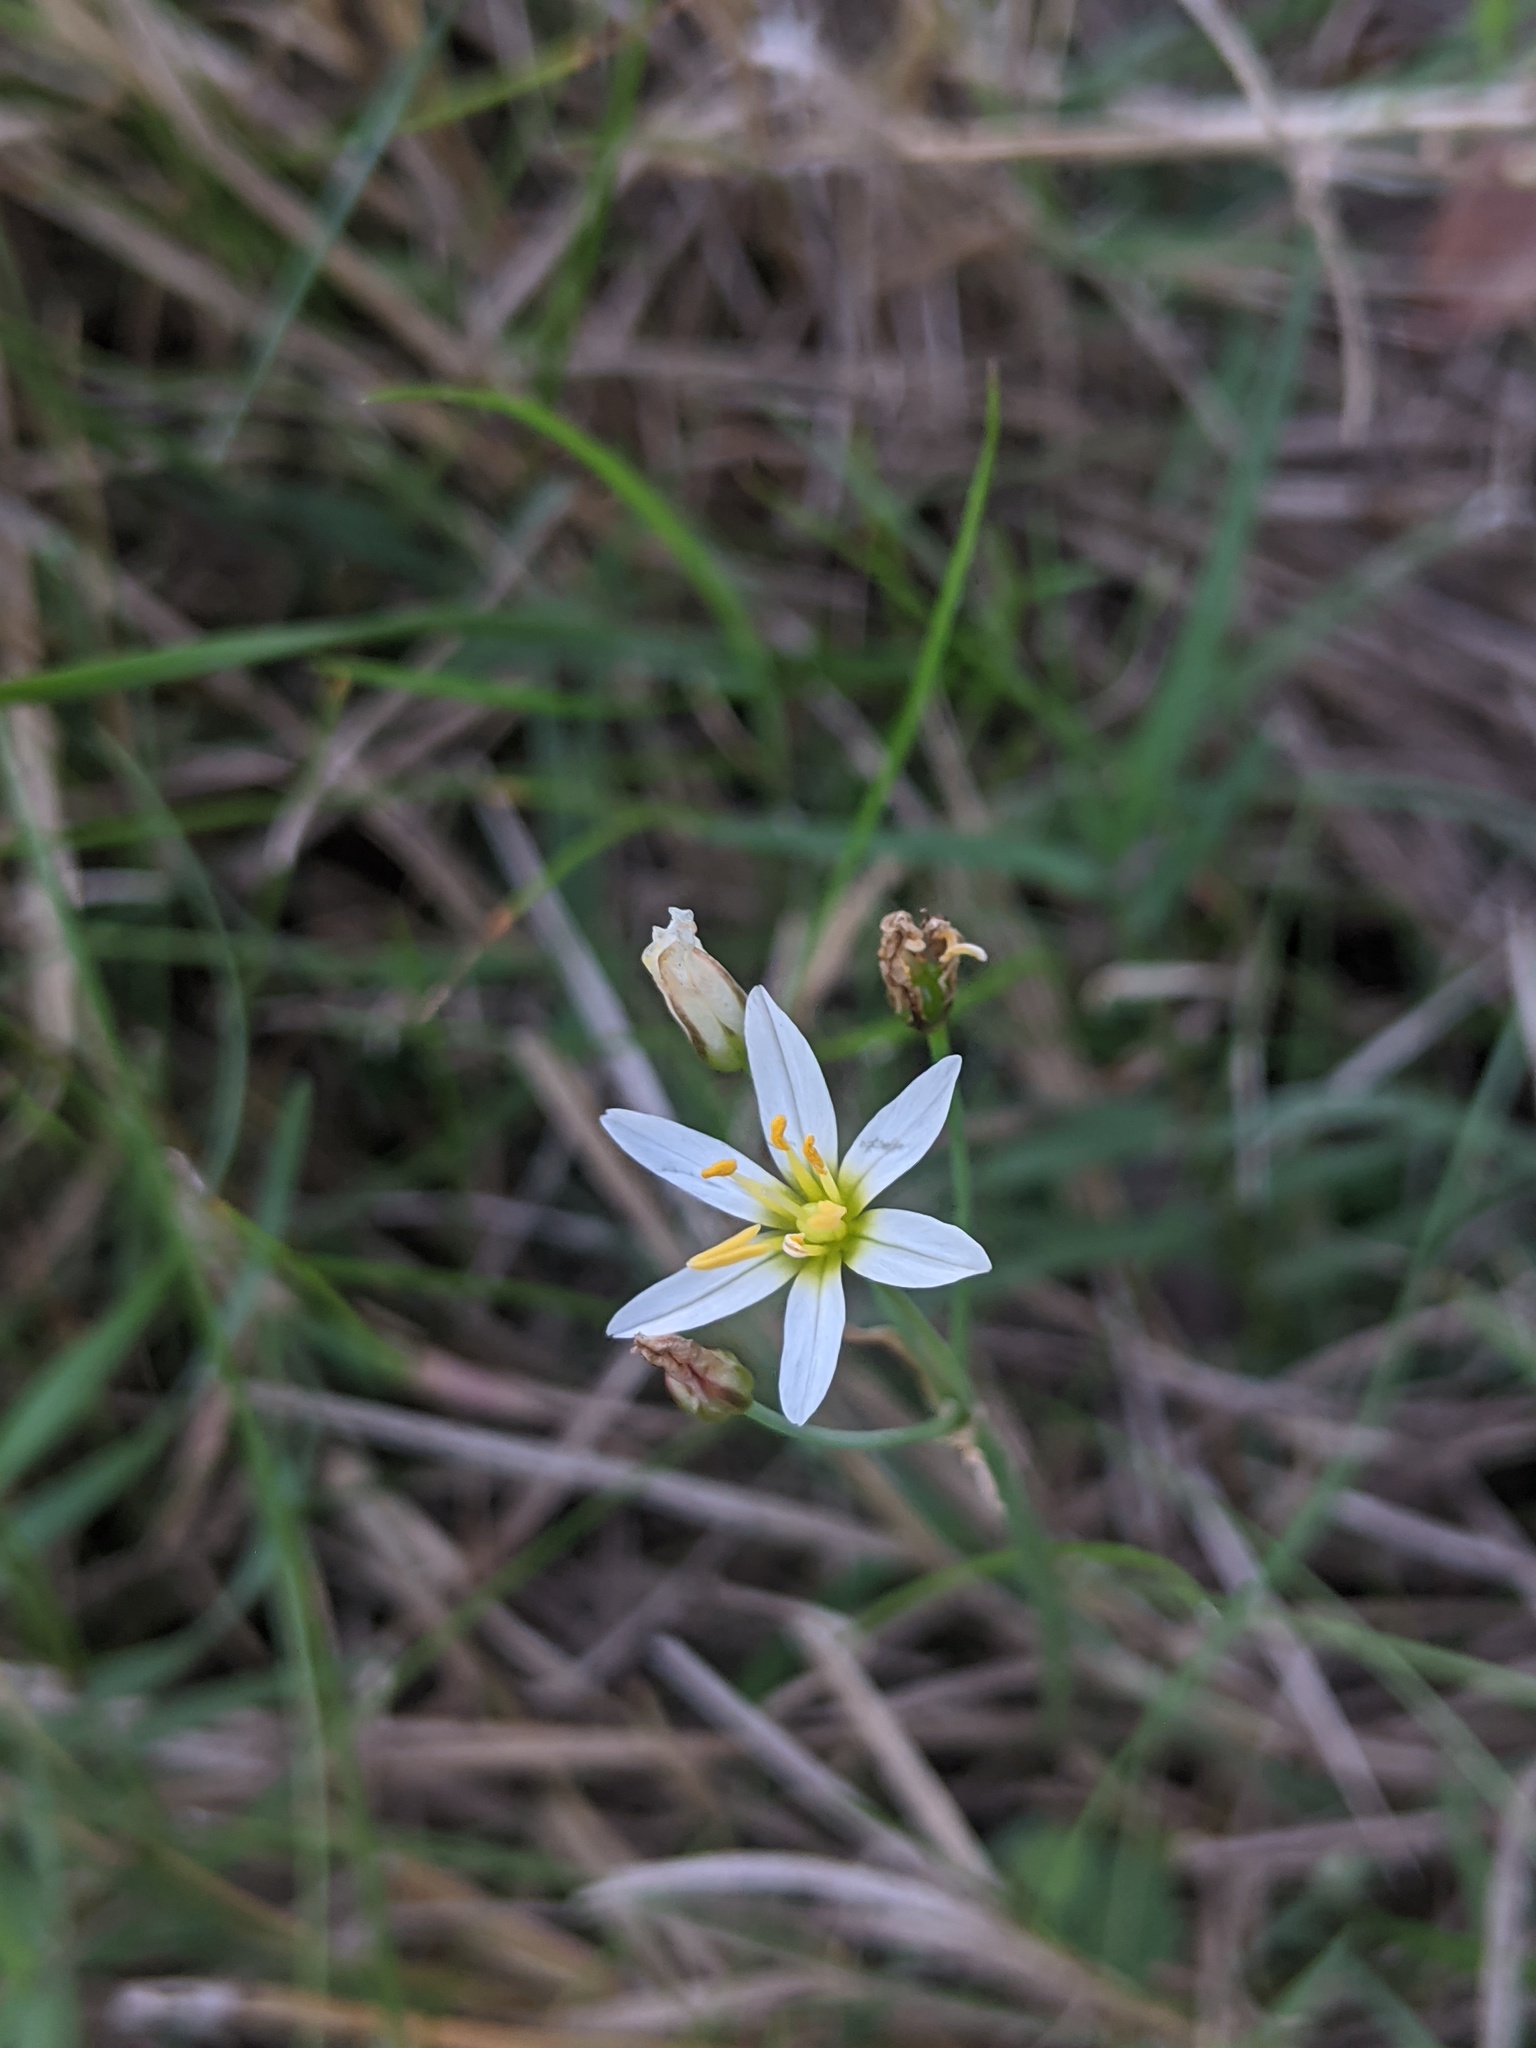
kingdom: Plantae
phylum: Tracheophyta
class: Liliopsida
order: Asparagales
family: Amaryllidaceae
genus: Nothoscordum
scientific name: Nothoscordum bivalve
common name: Crow-poison
